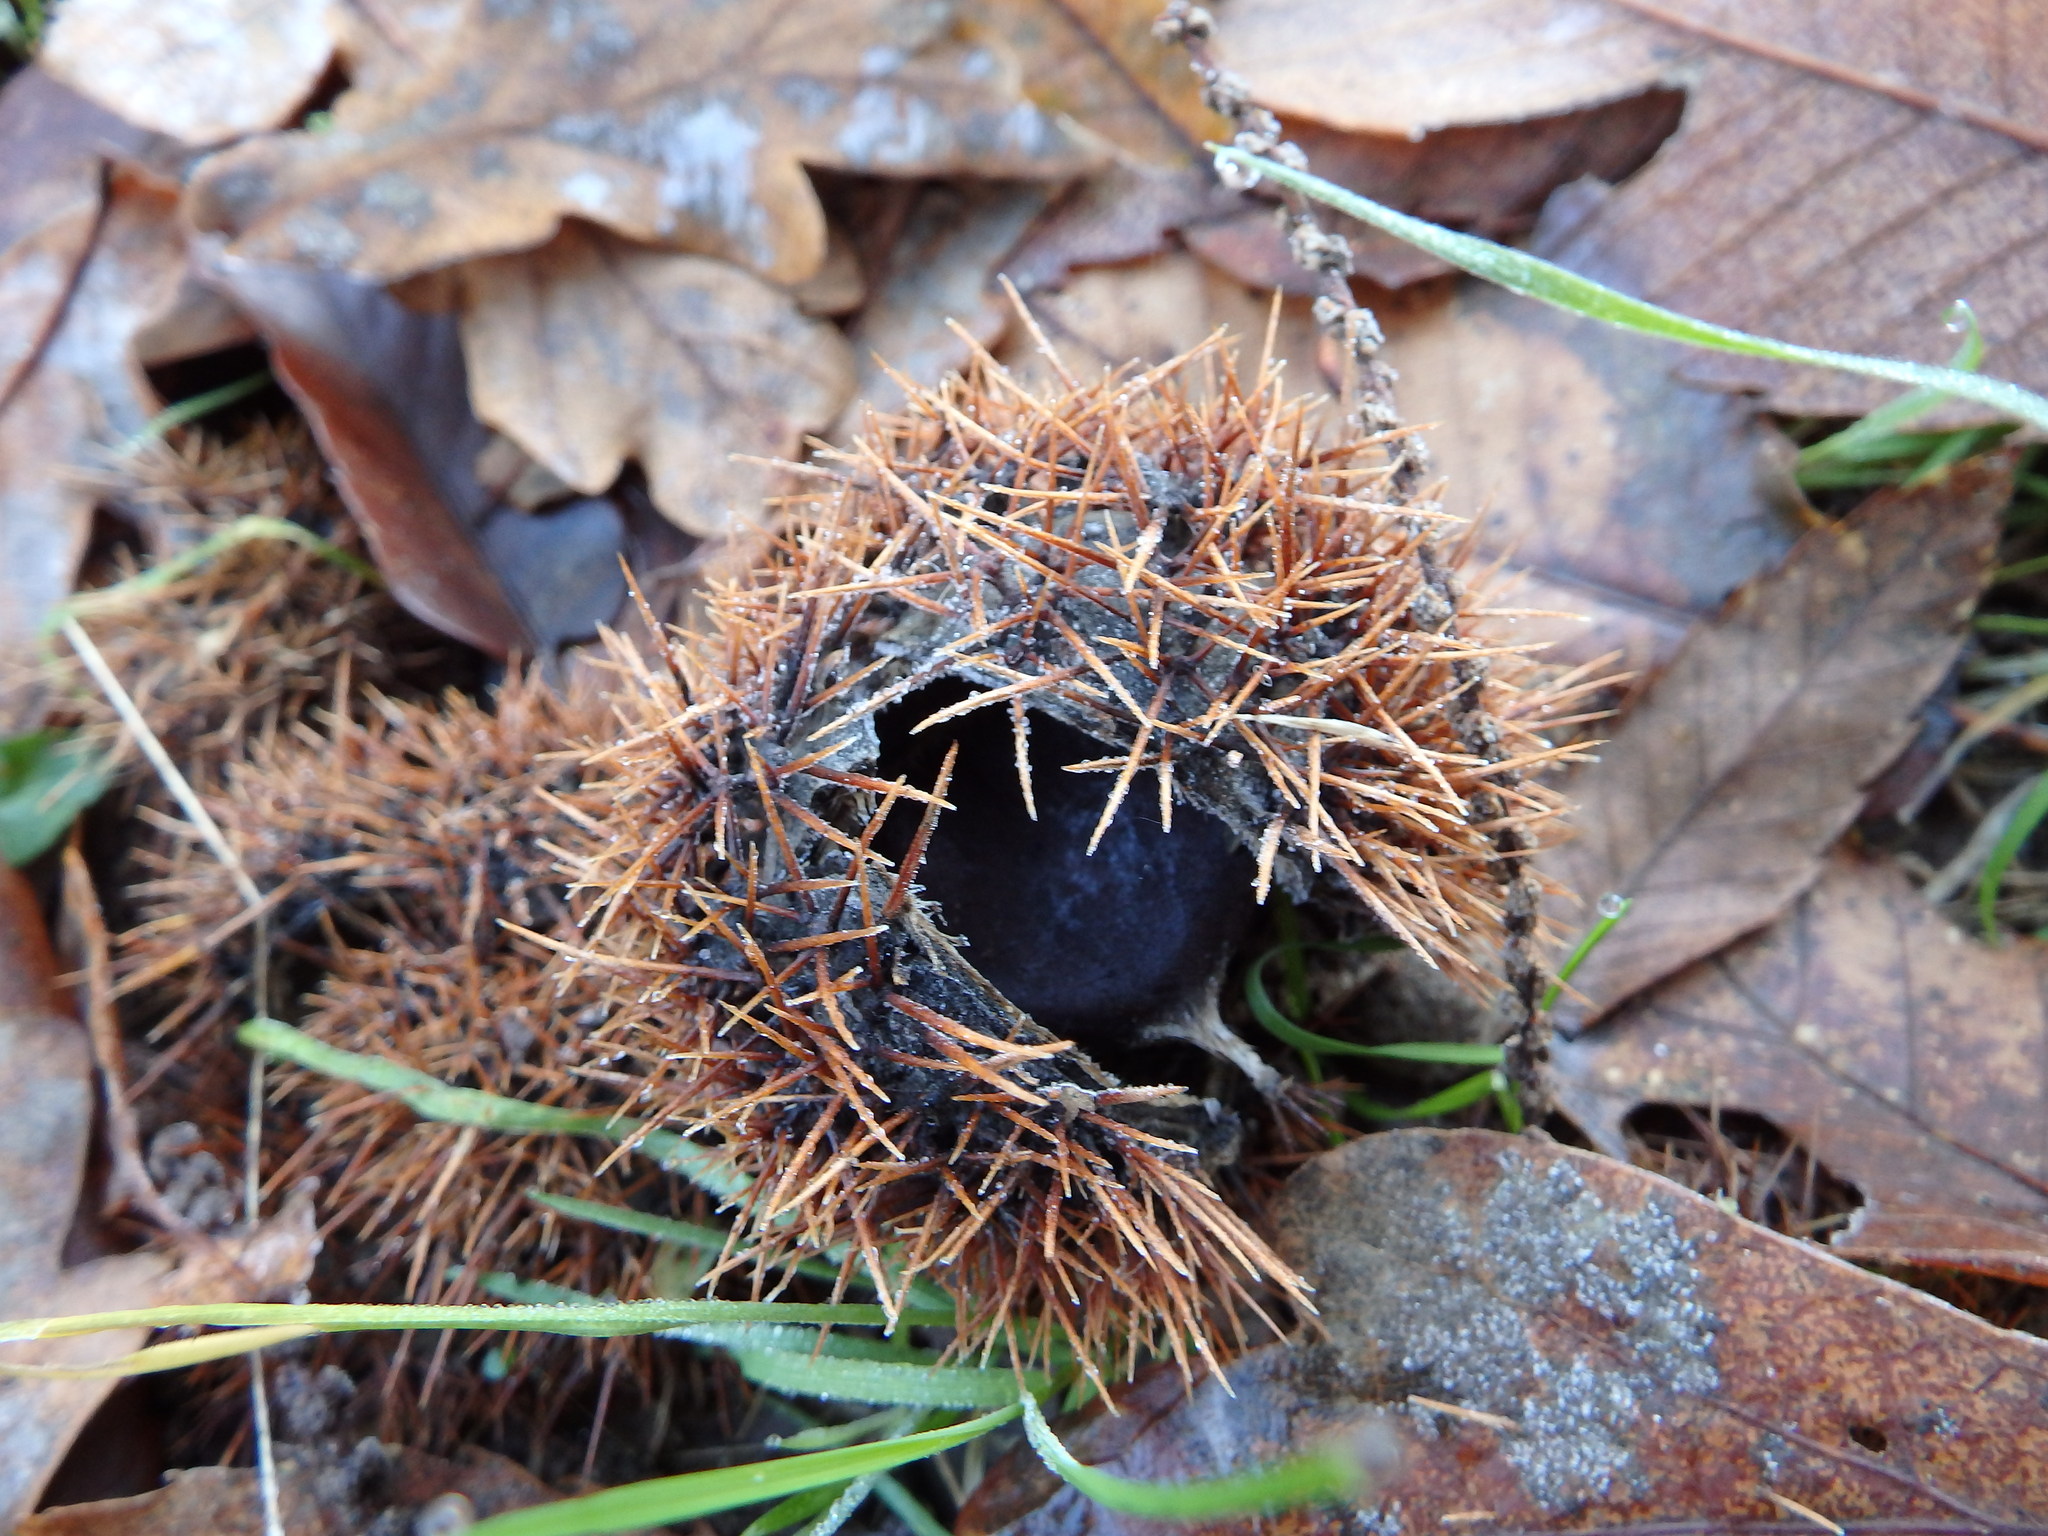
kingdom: Plantae
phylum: Tracheophyta
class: Magnoliopsida
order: Fagales
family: Fagaceae
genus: Castanea
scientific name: Castanea sativa
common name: Sweet chestnut
